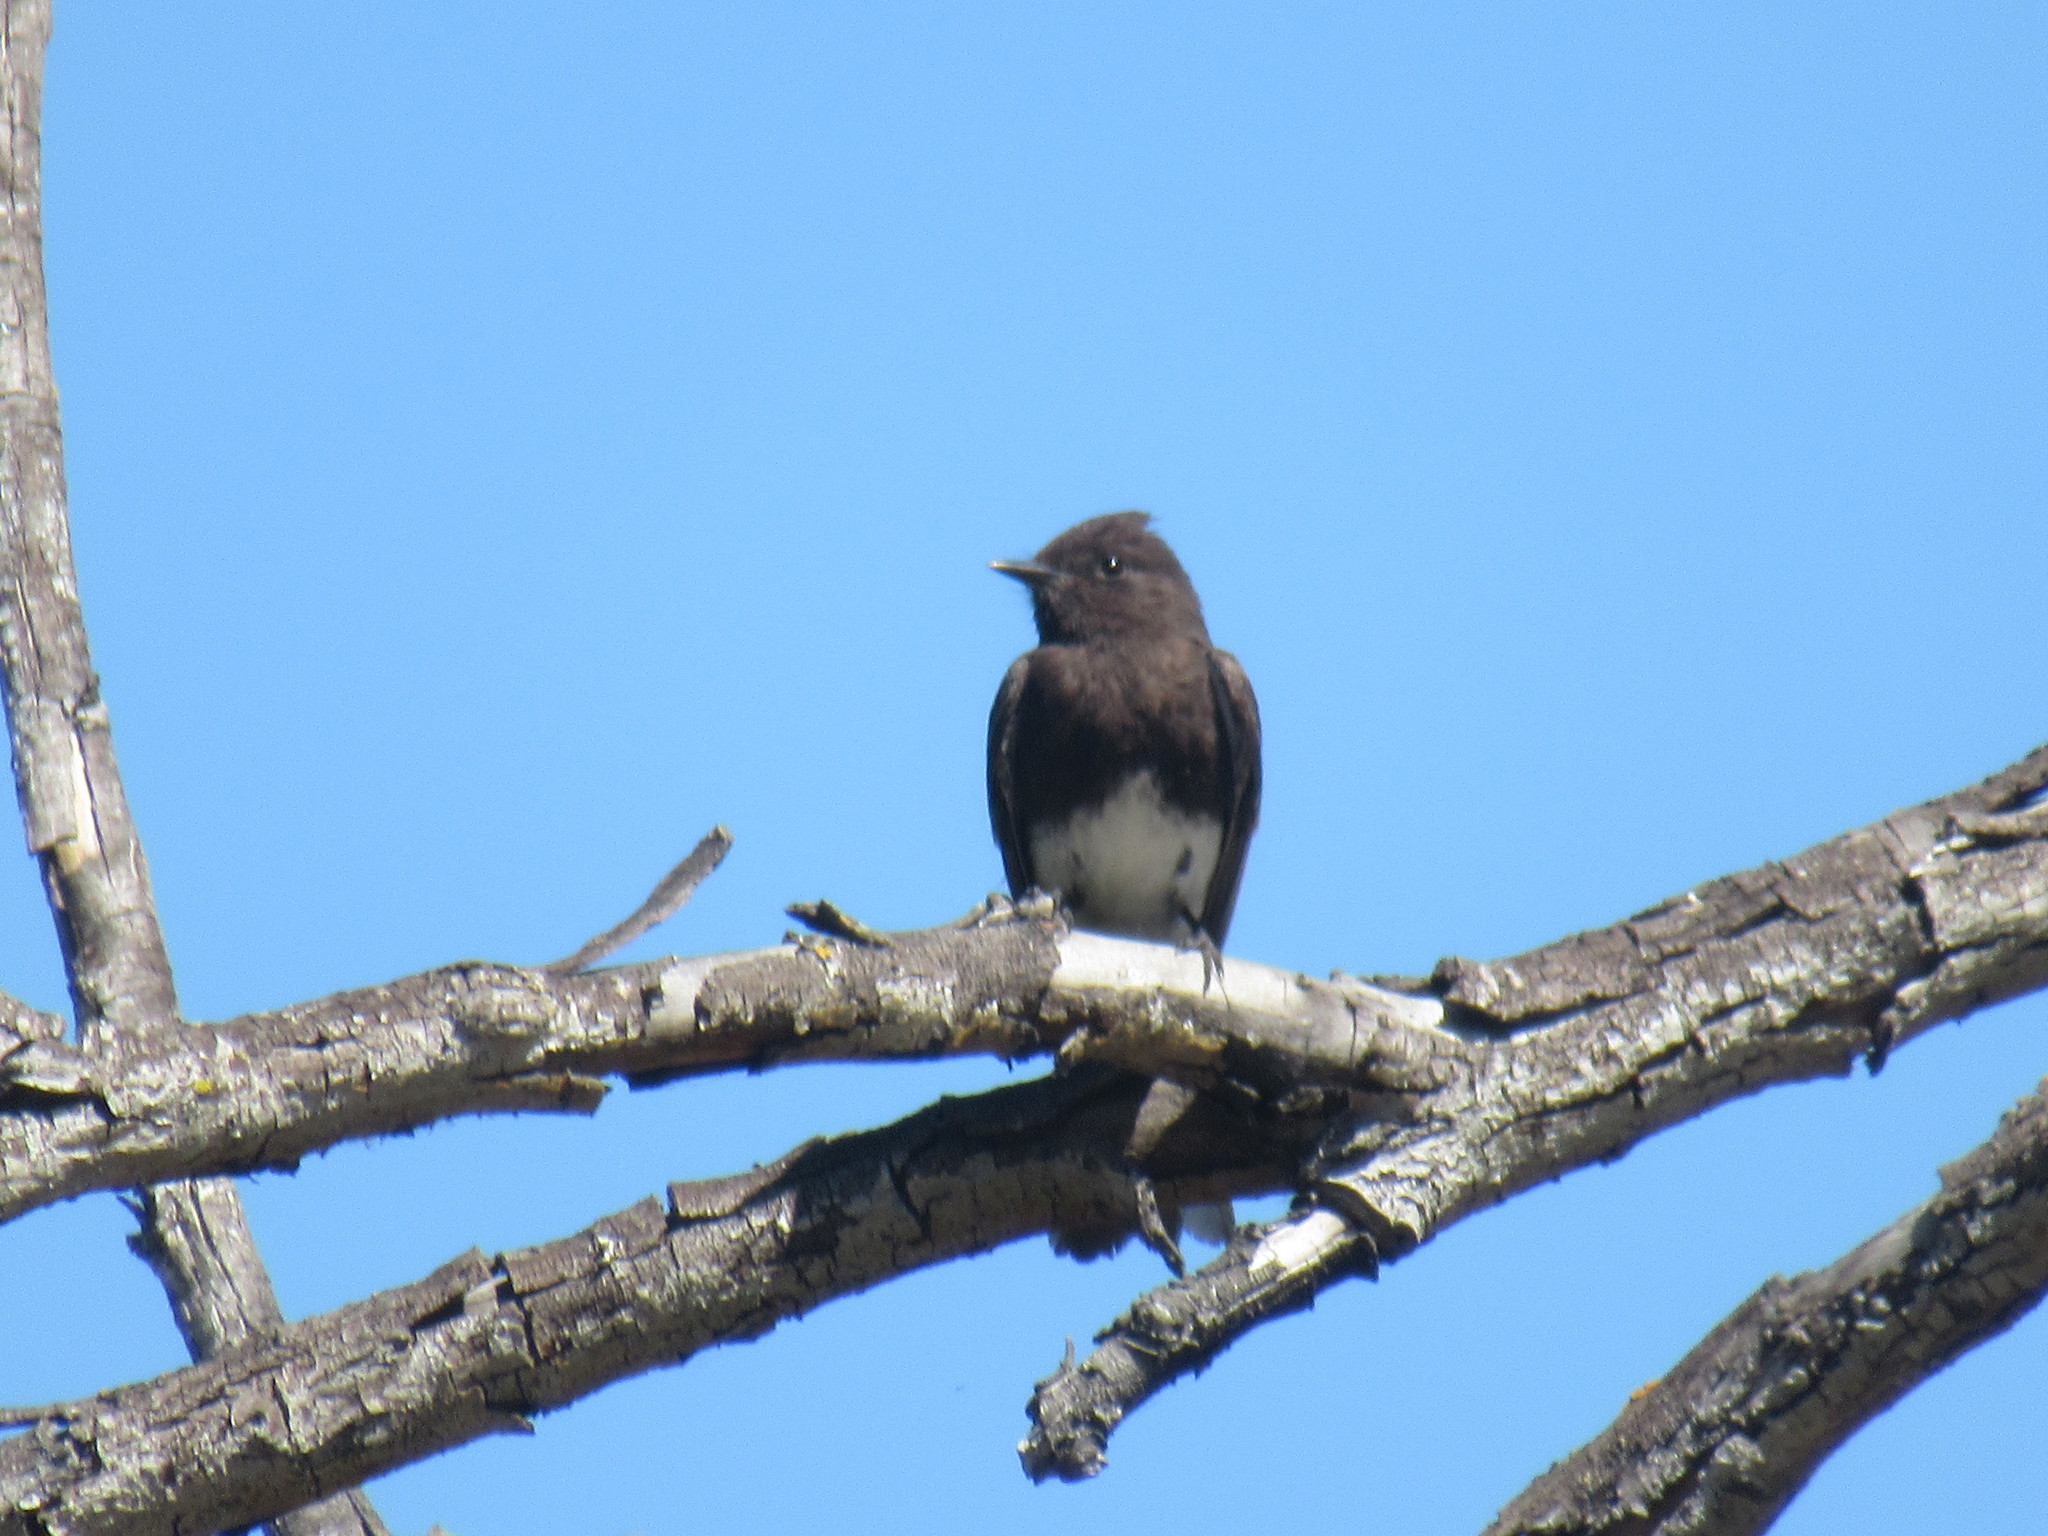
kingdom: Animalia
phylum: Chordata
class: Aves
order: Passeriformes
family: Tyrannidae
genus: Sayornis
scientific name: Sayornis nigricans
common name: Black phoebe
